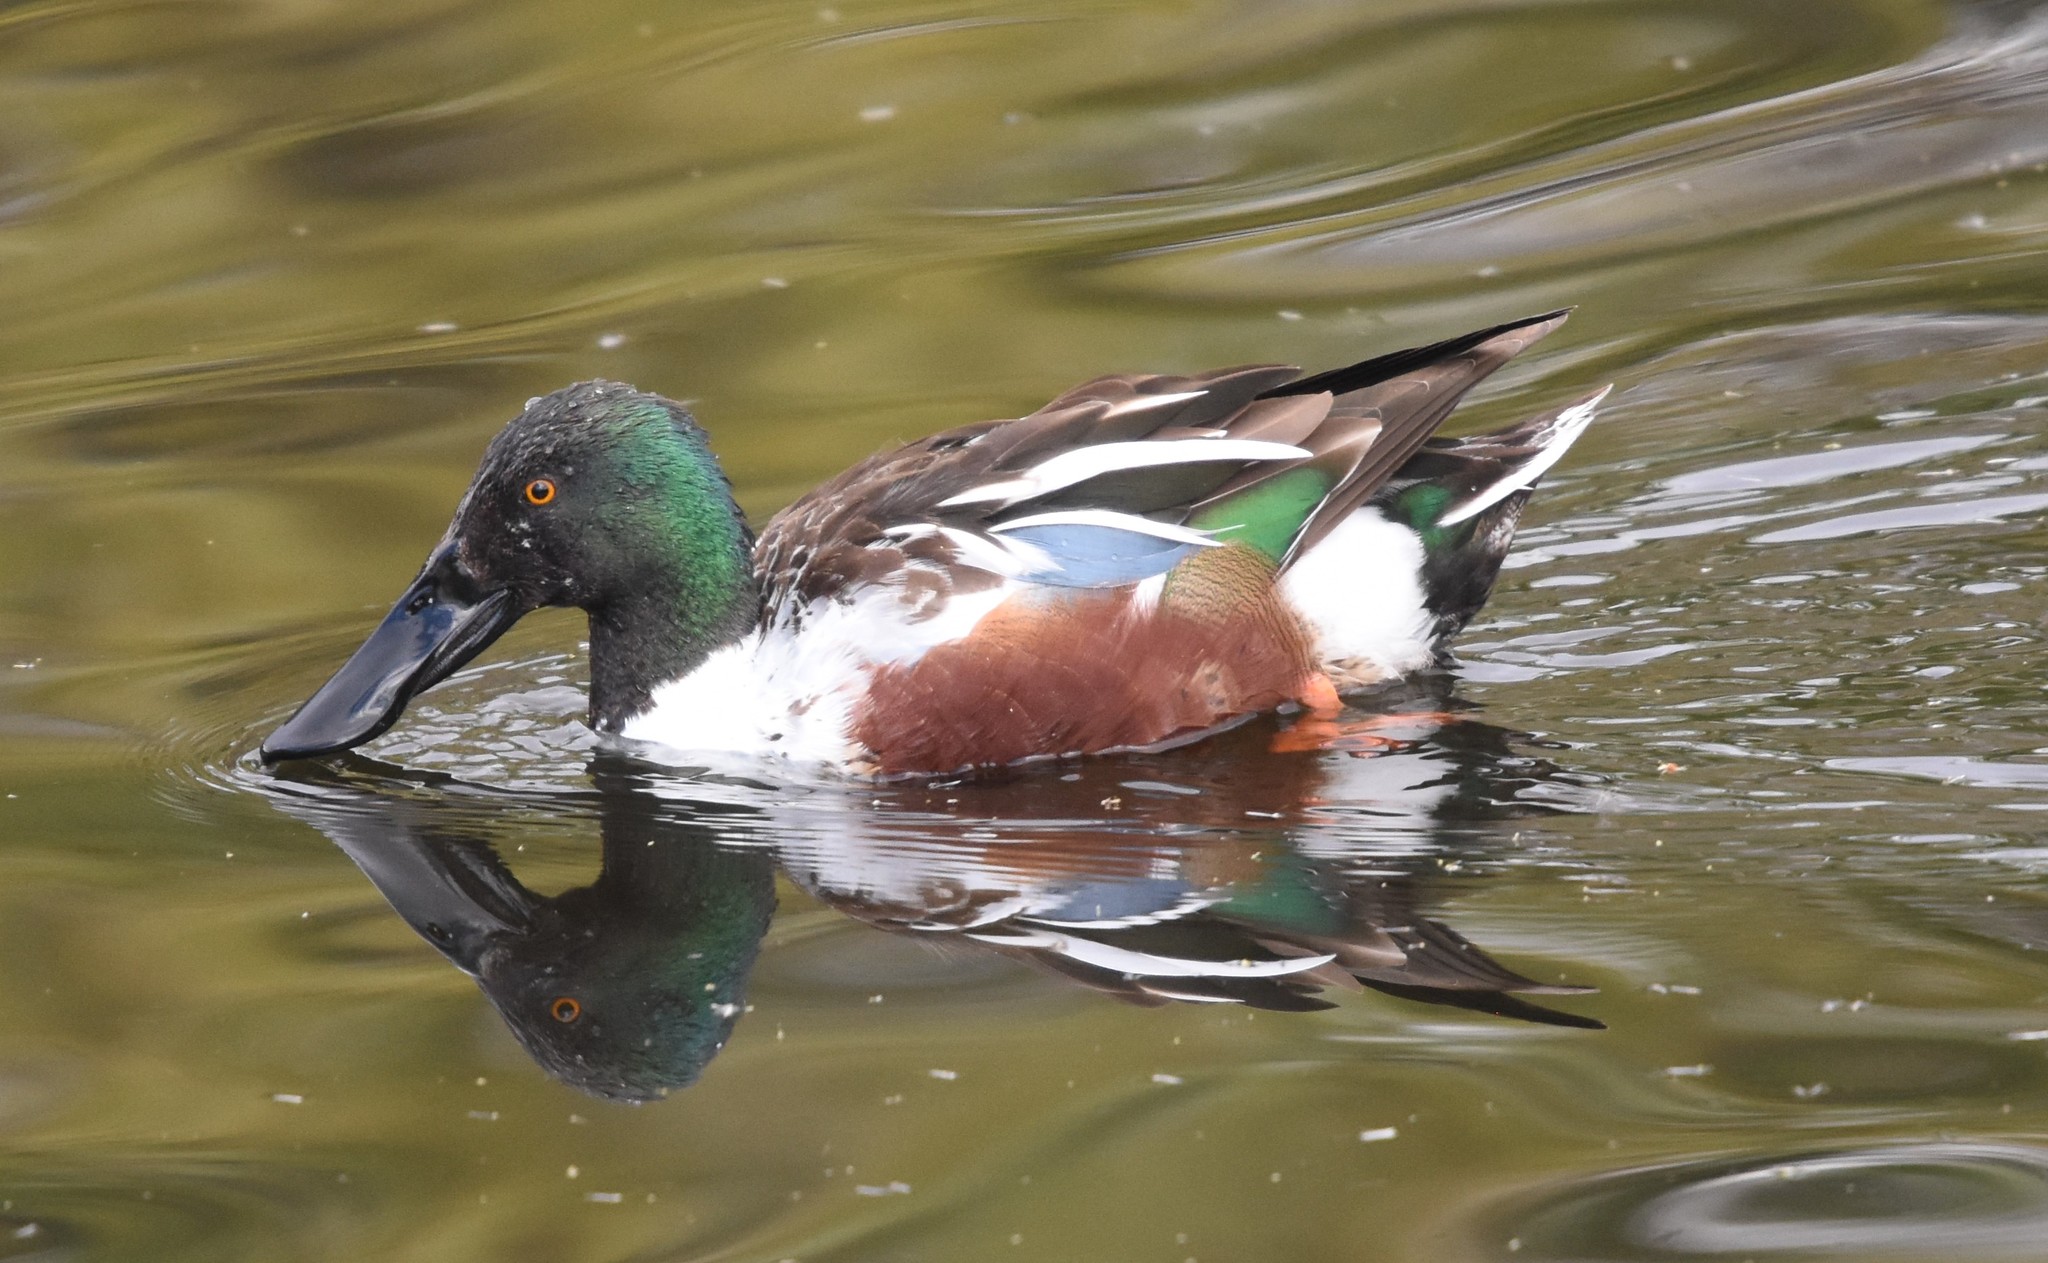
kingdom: Animalia
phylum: Chordata
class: Aves
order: Anseriformes
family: Anatidae
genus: Spatula
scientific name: Spatula clypeata
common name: Northern shoveler
